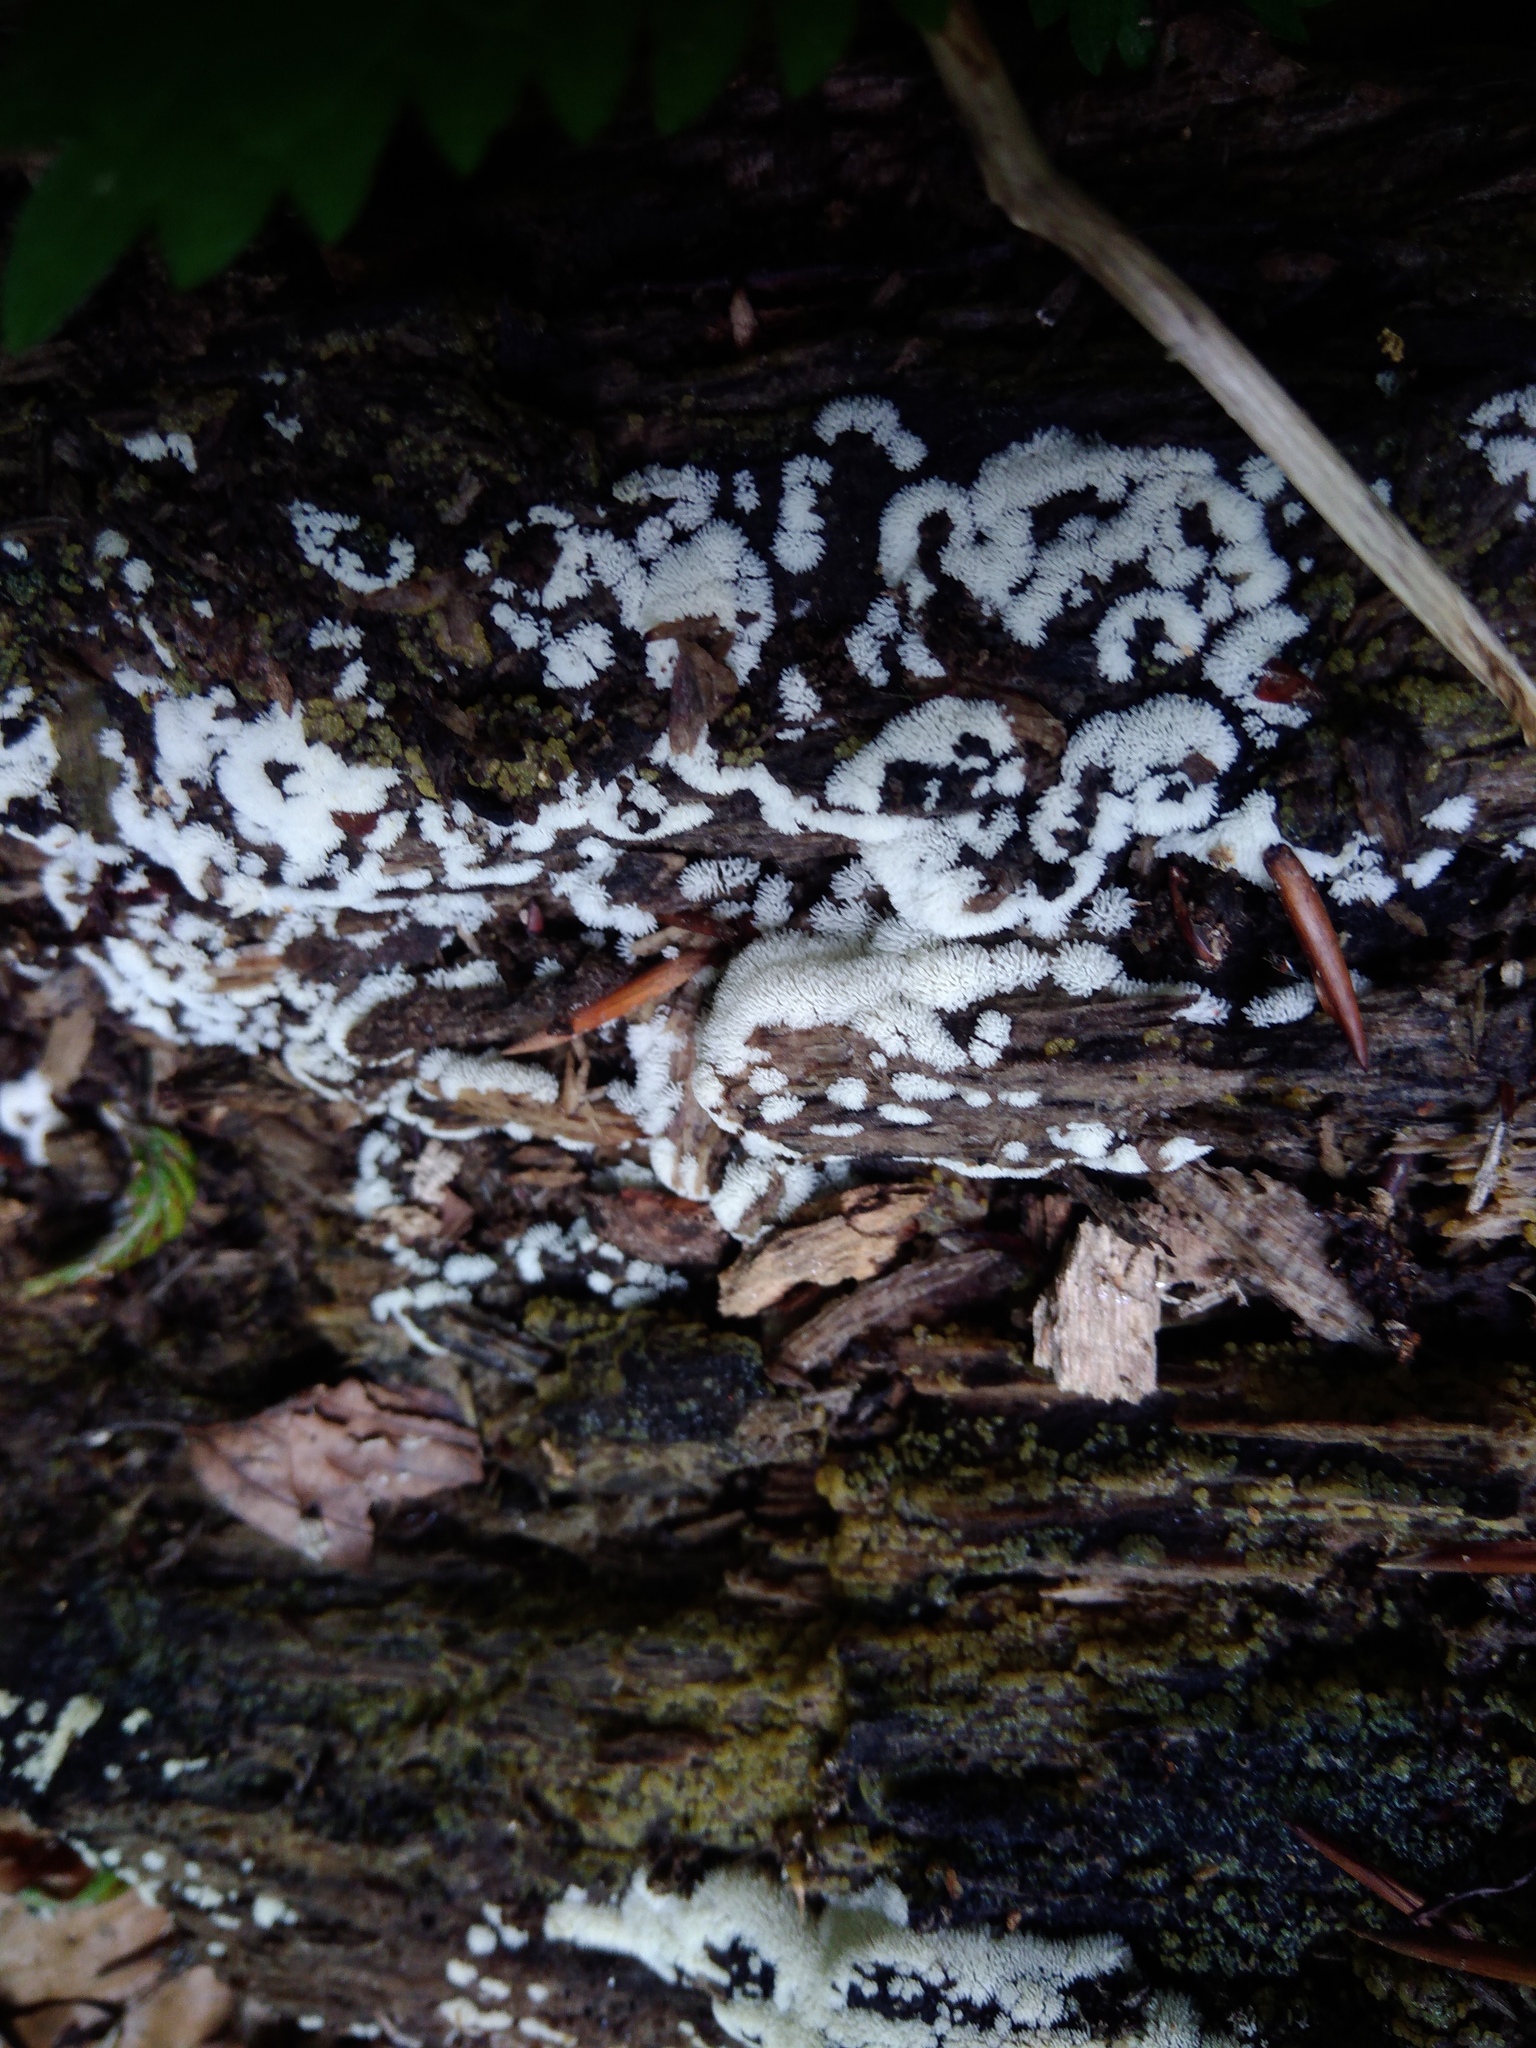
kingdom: Protozoa
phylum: Mycetozoa
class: Protosteliomycetes
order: Ceratiomyxales
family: Ceratiomyxaceae
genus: Ceratiomyxa
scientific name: Ceratiomyxa fruticulosa
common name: Honeycomb coral slime mold
